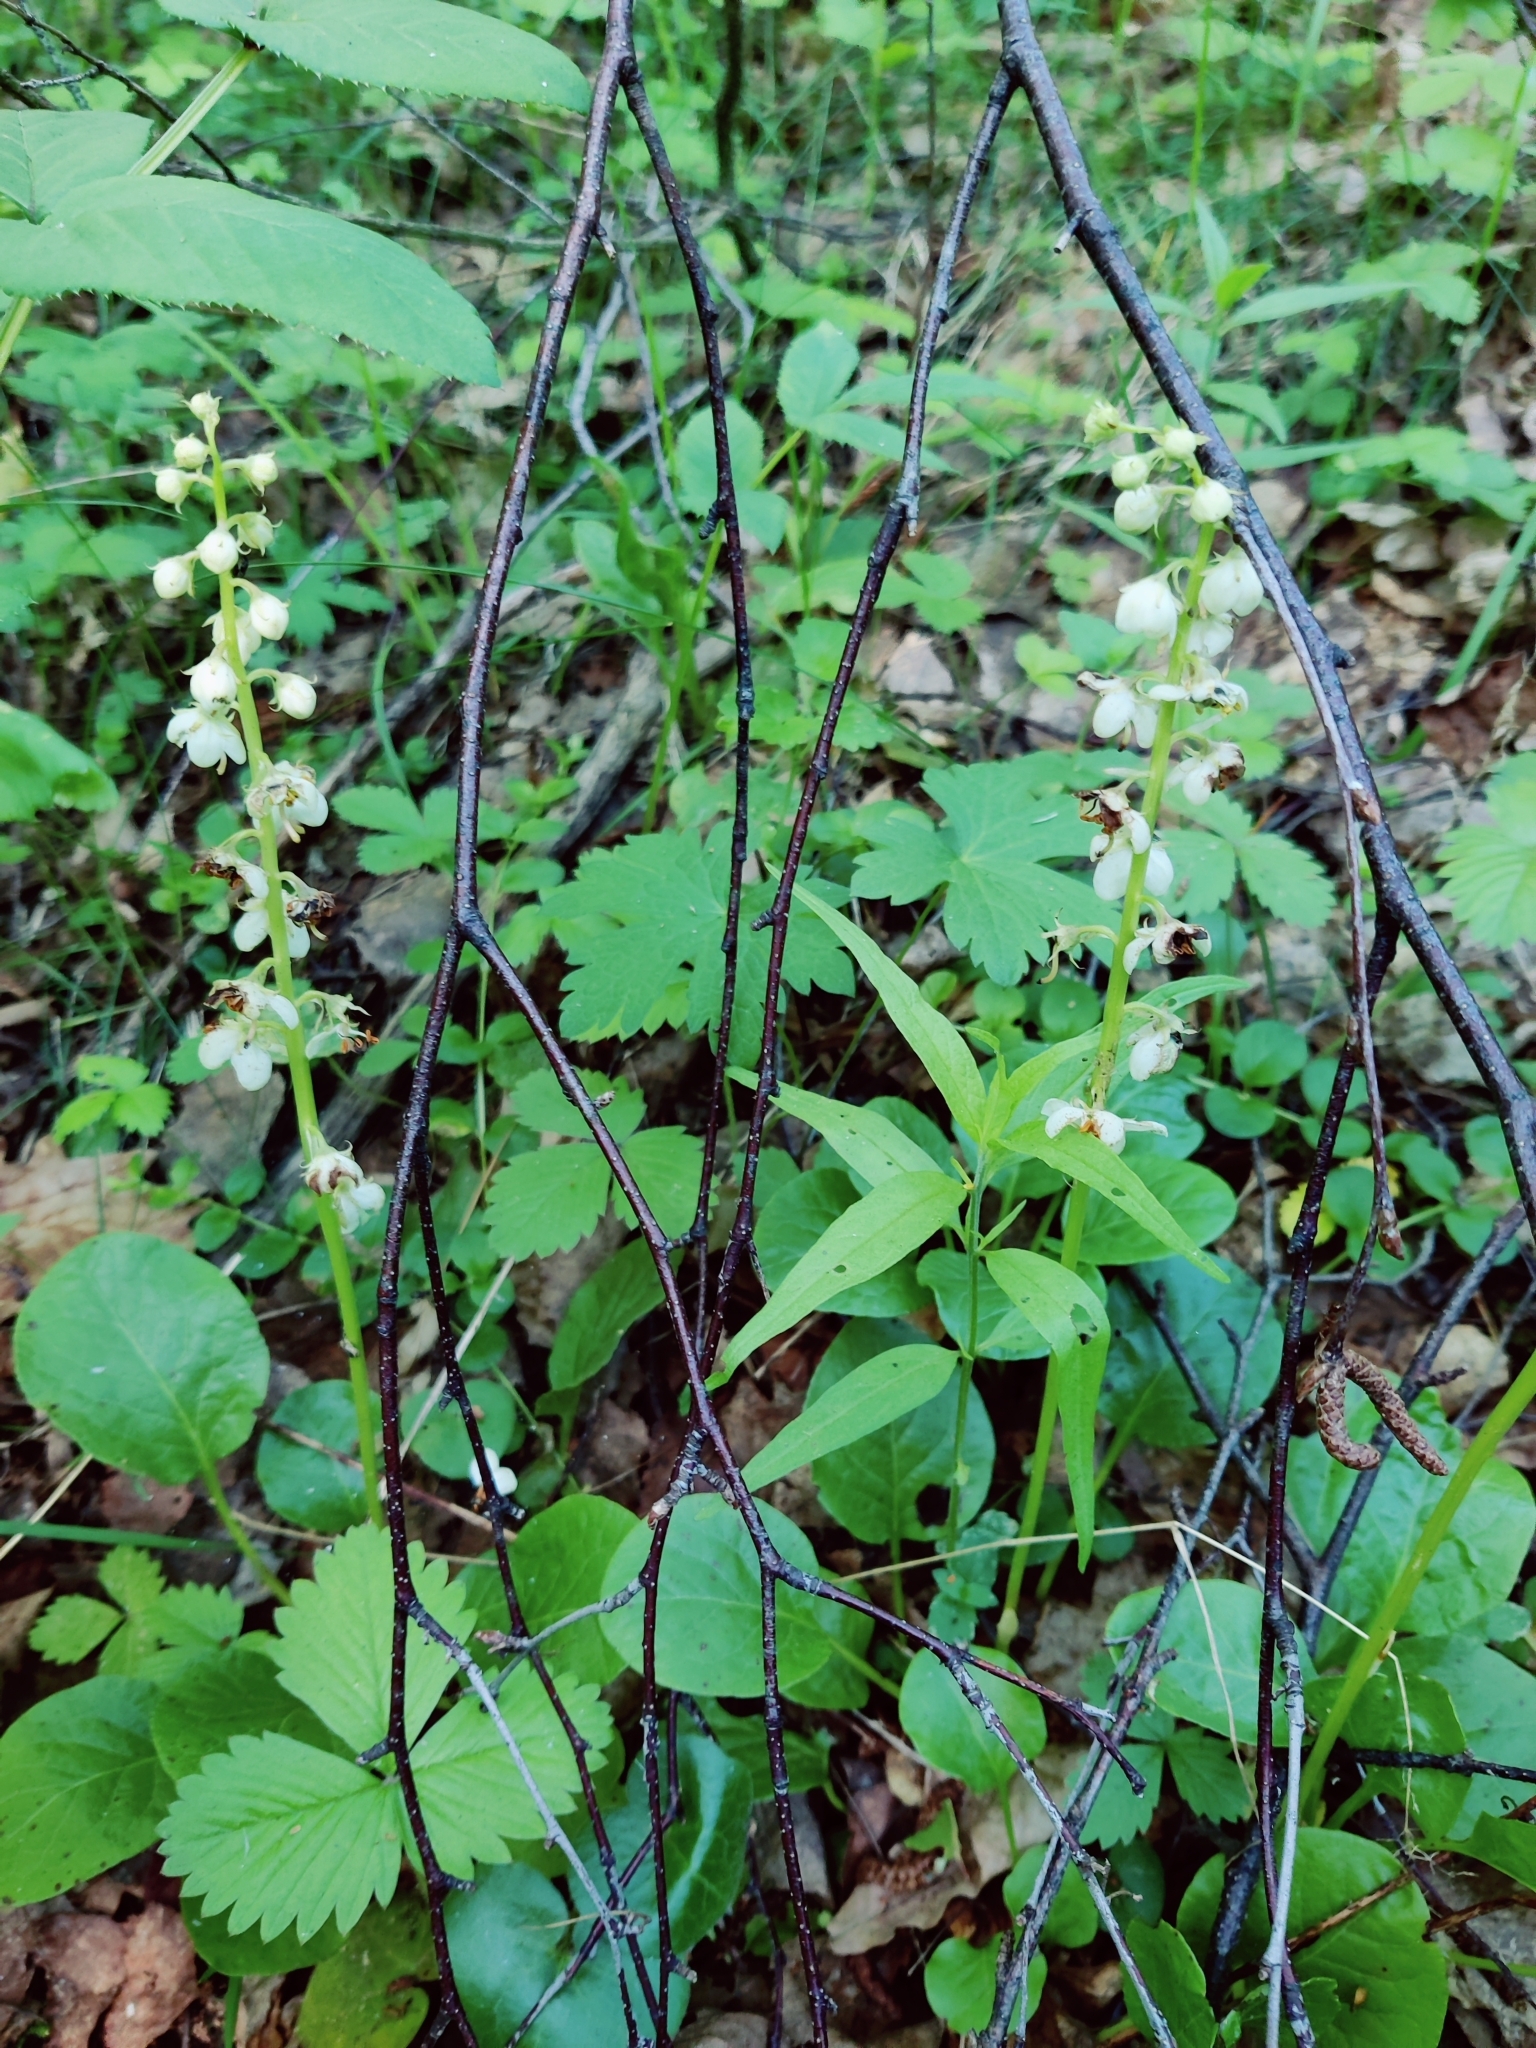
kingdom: Plantae
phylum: Tracheophyta
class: Magnoliopsida
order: Ericales
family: Ericaceae
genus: Pyrola
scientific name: Pyrola rotundifolia
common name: Round-leaved wintergreen
